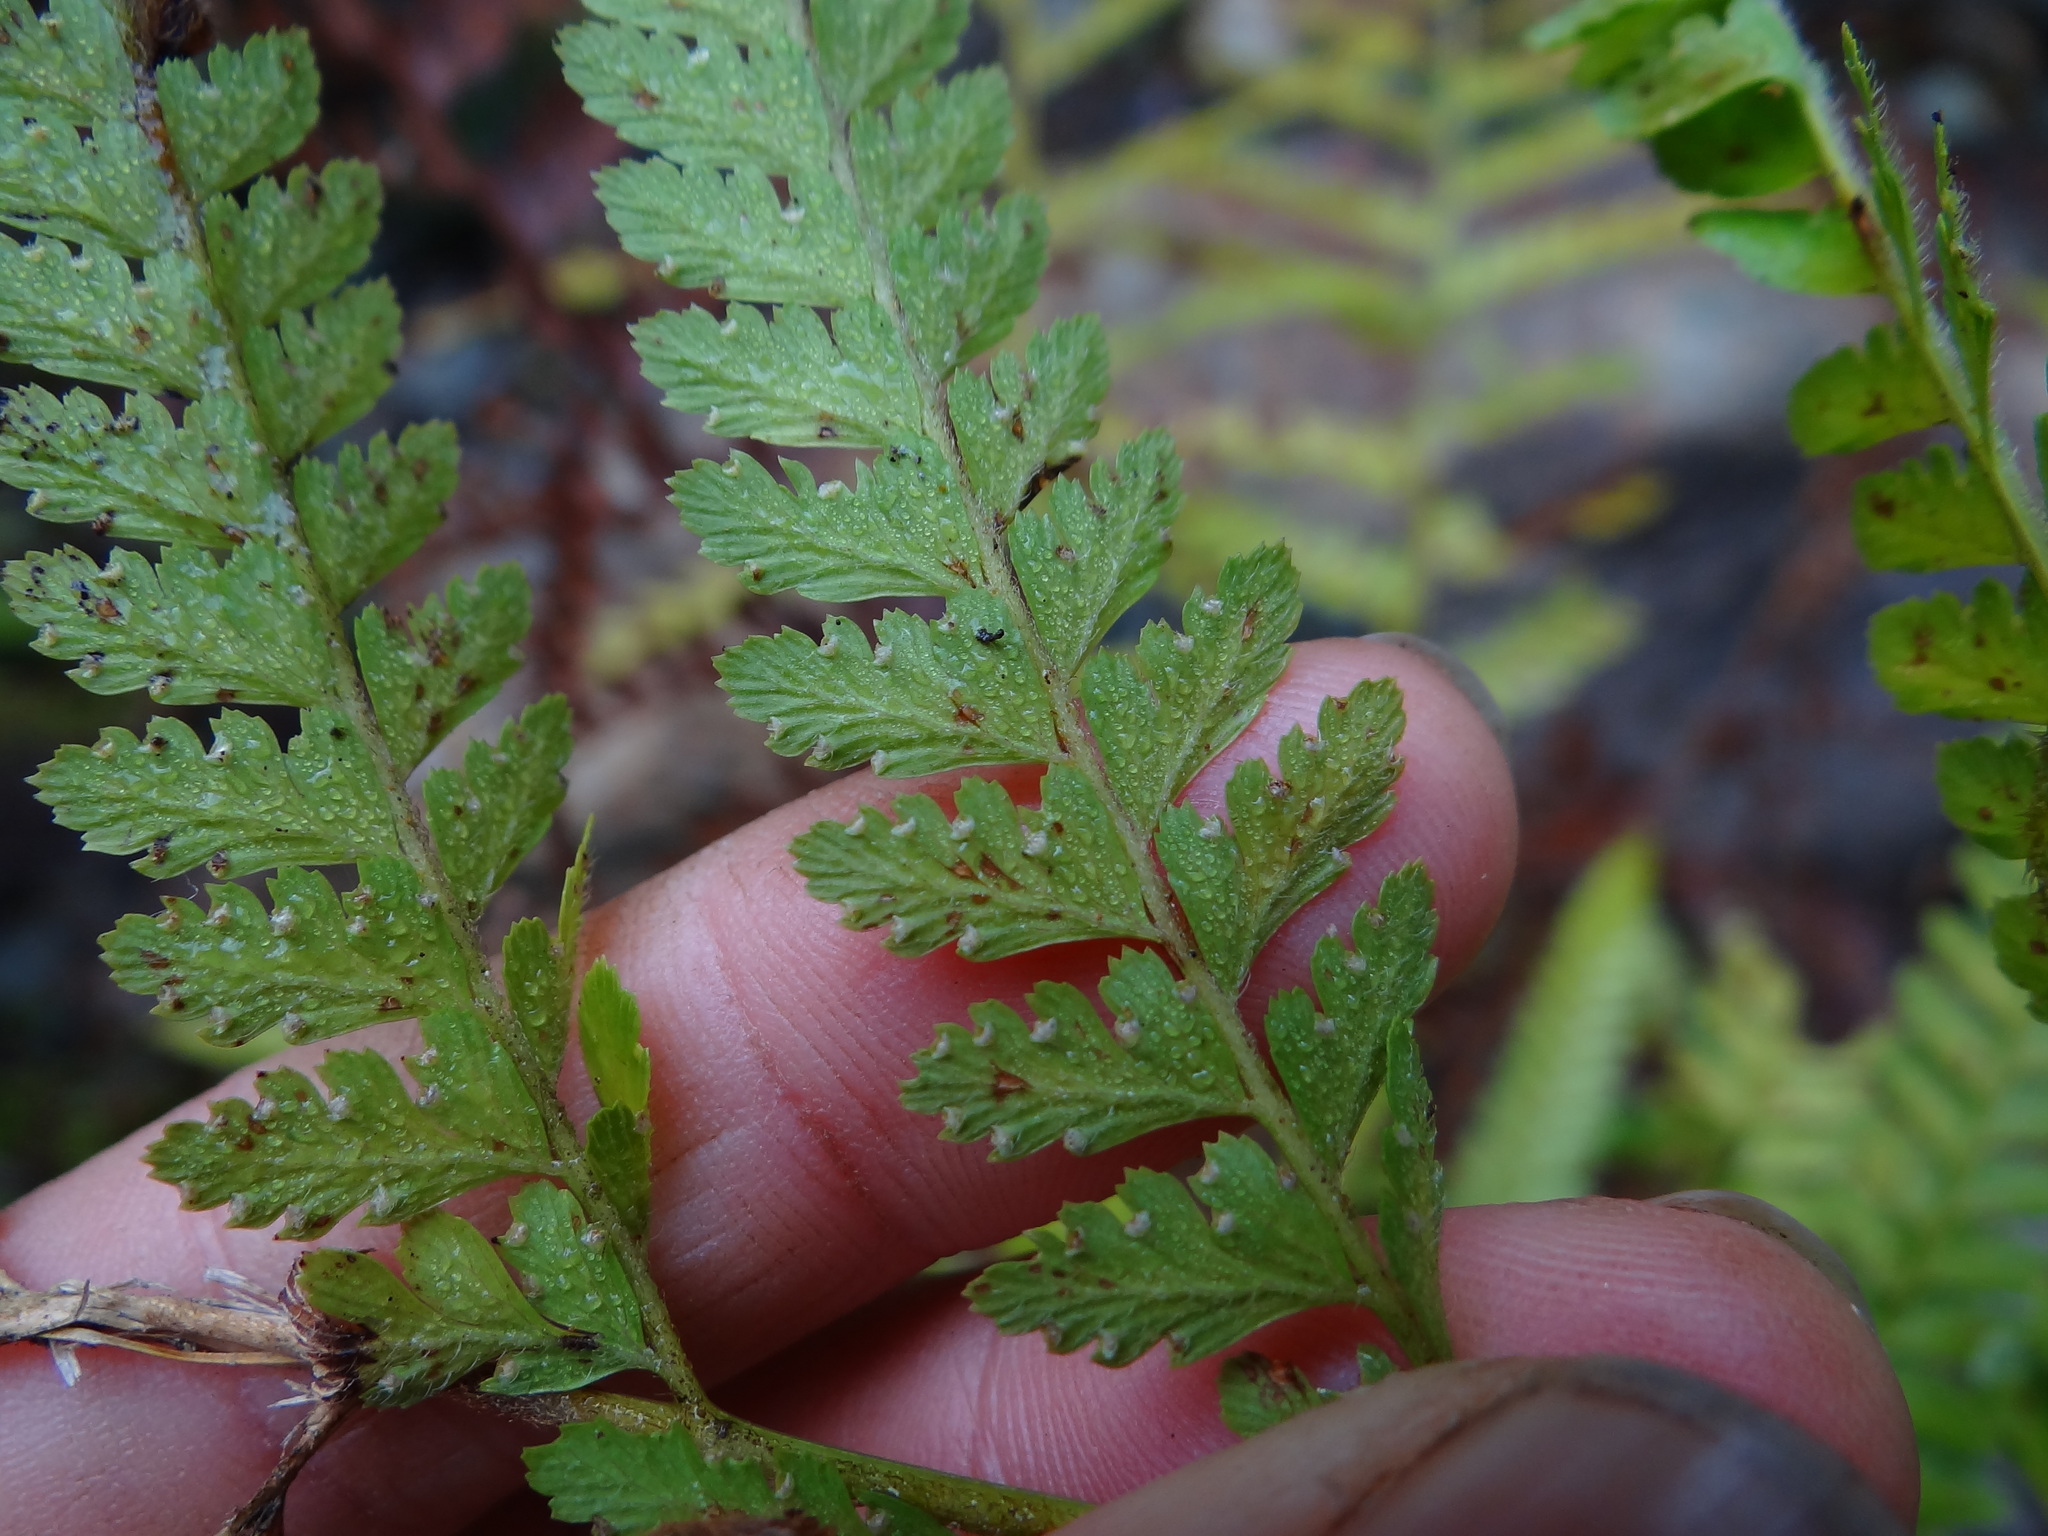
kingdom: Plantae
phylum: Tracheophyta
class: Polypodiopsida
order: Polypodiales
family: Dennstaedtiaceae
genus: Microlepia
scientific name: Microlepia strigosa
